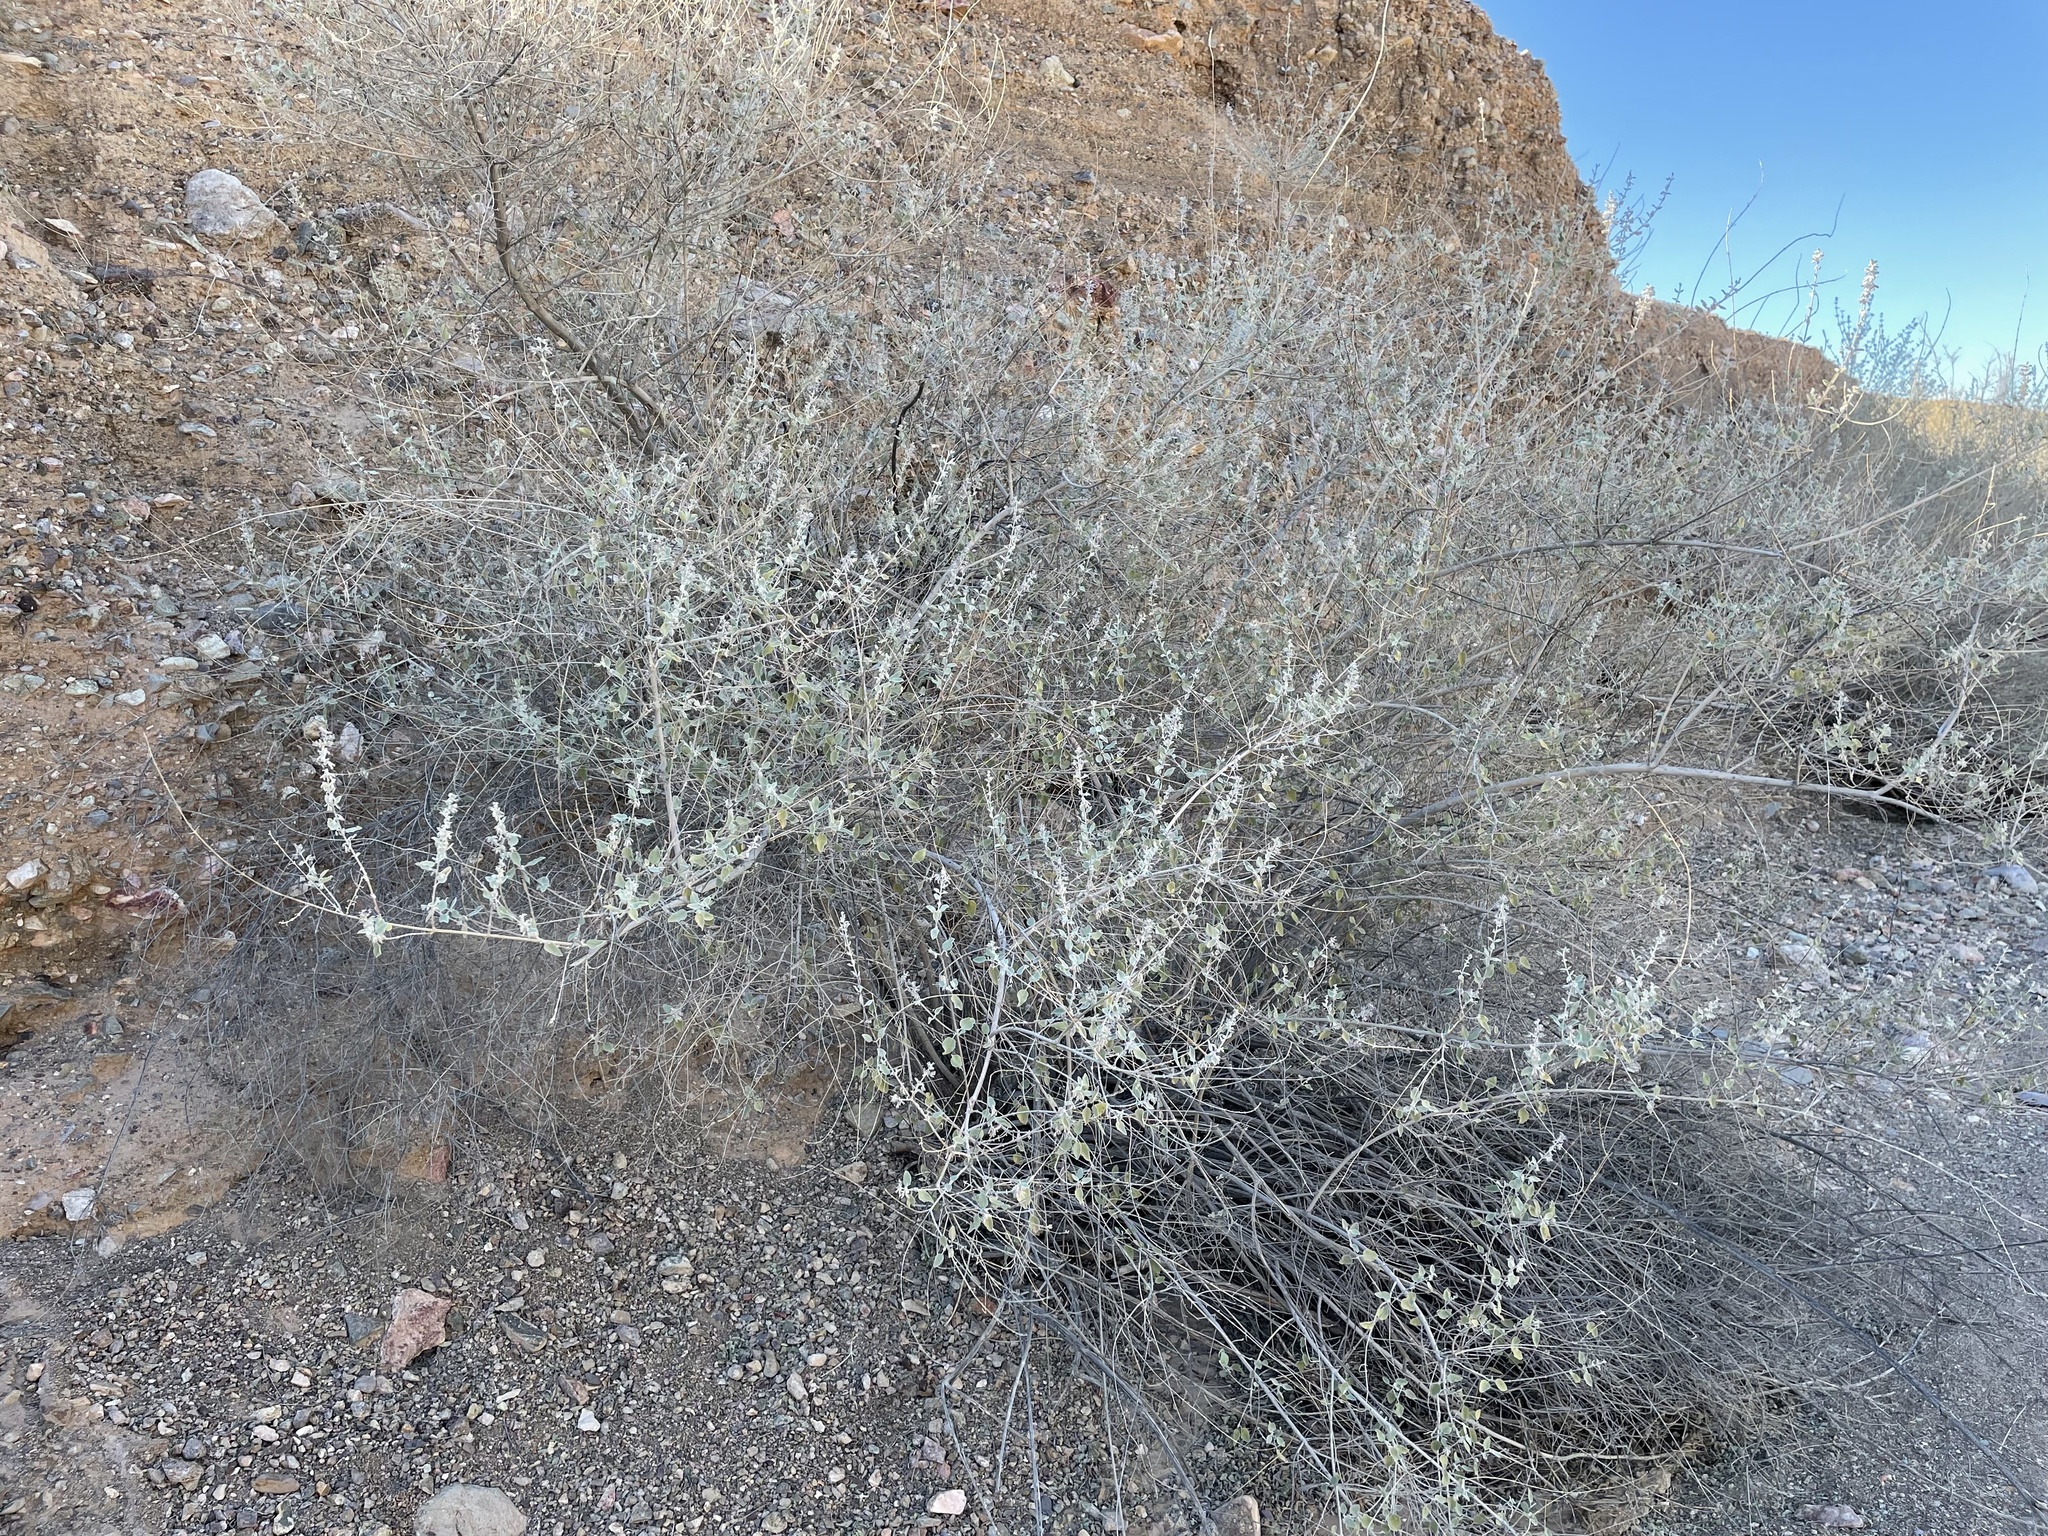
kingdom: Plantae
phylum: Tracheophyta
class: Magnoliopsida
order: Lamiales
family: Lamiaceae
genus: Condea
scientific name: Condea emoryi
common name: Chia
